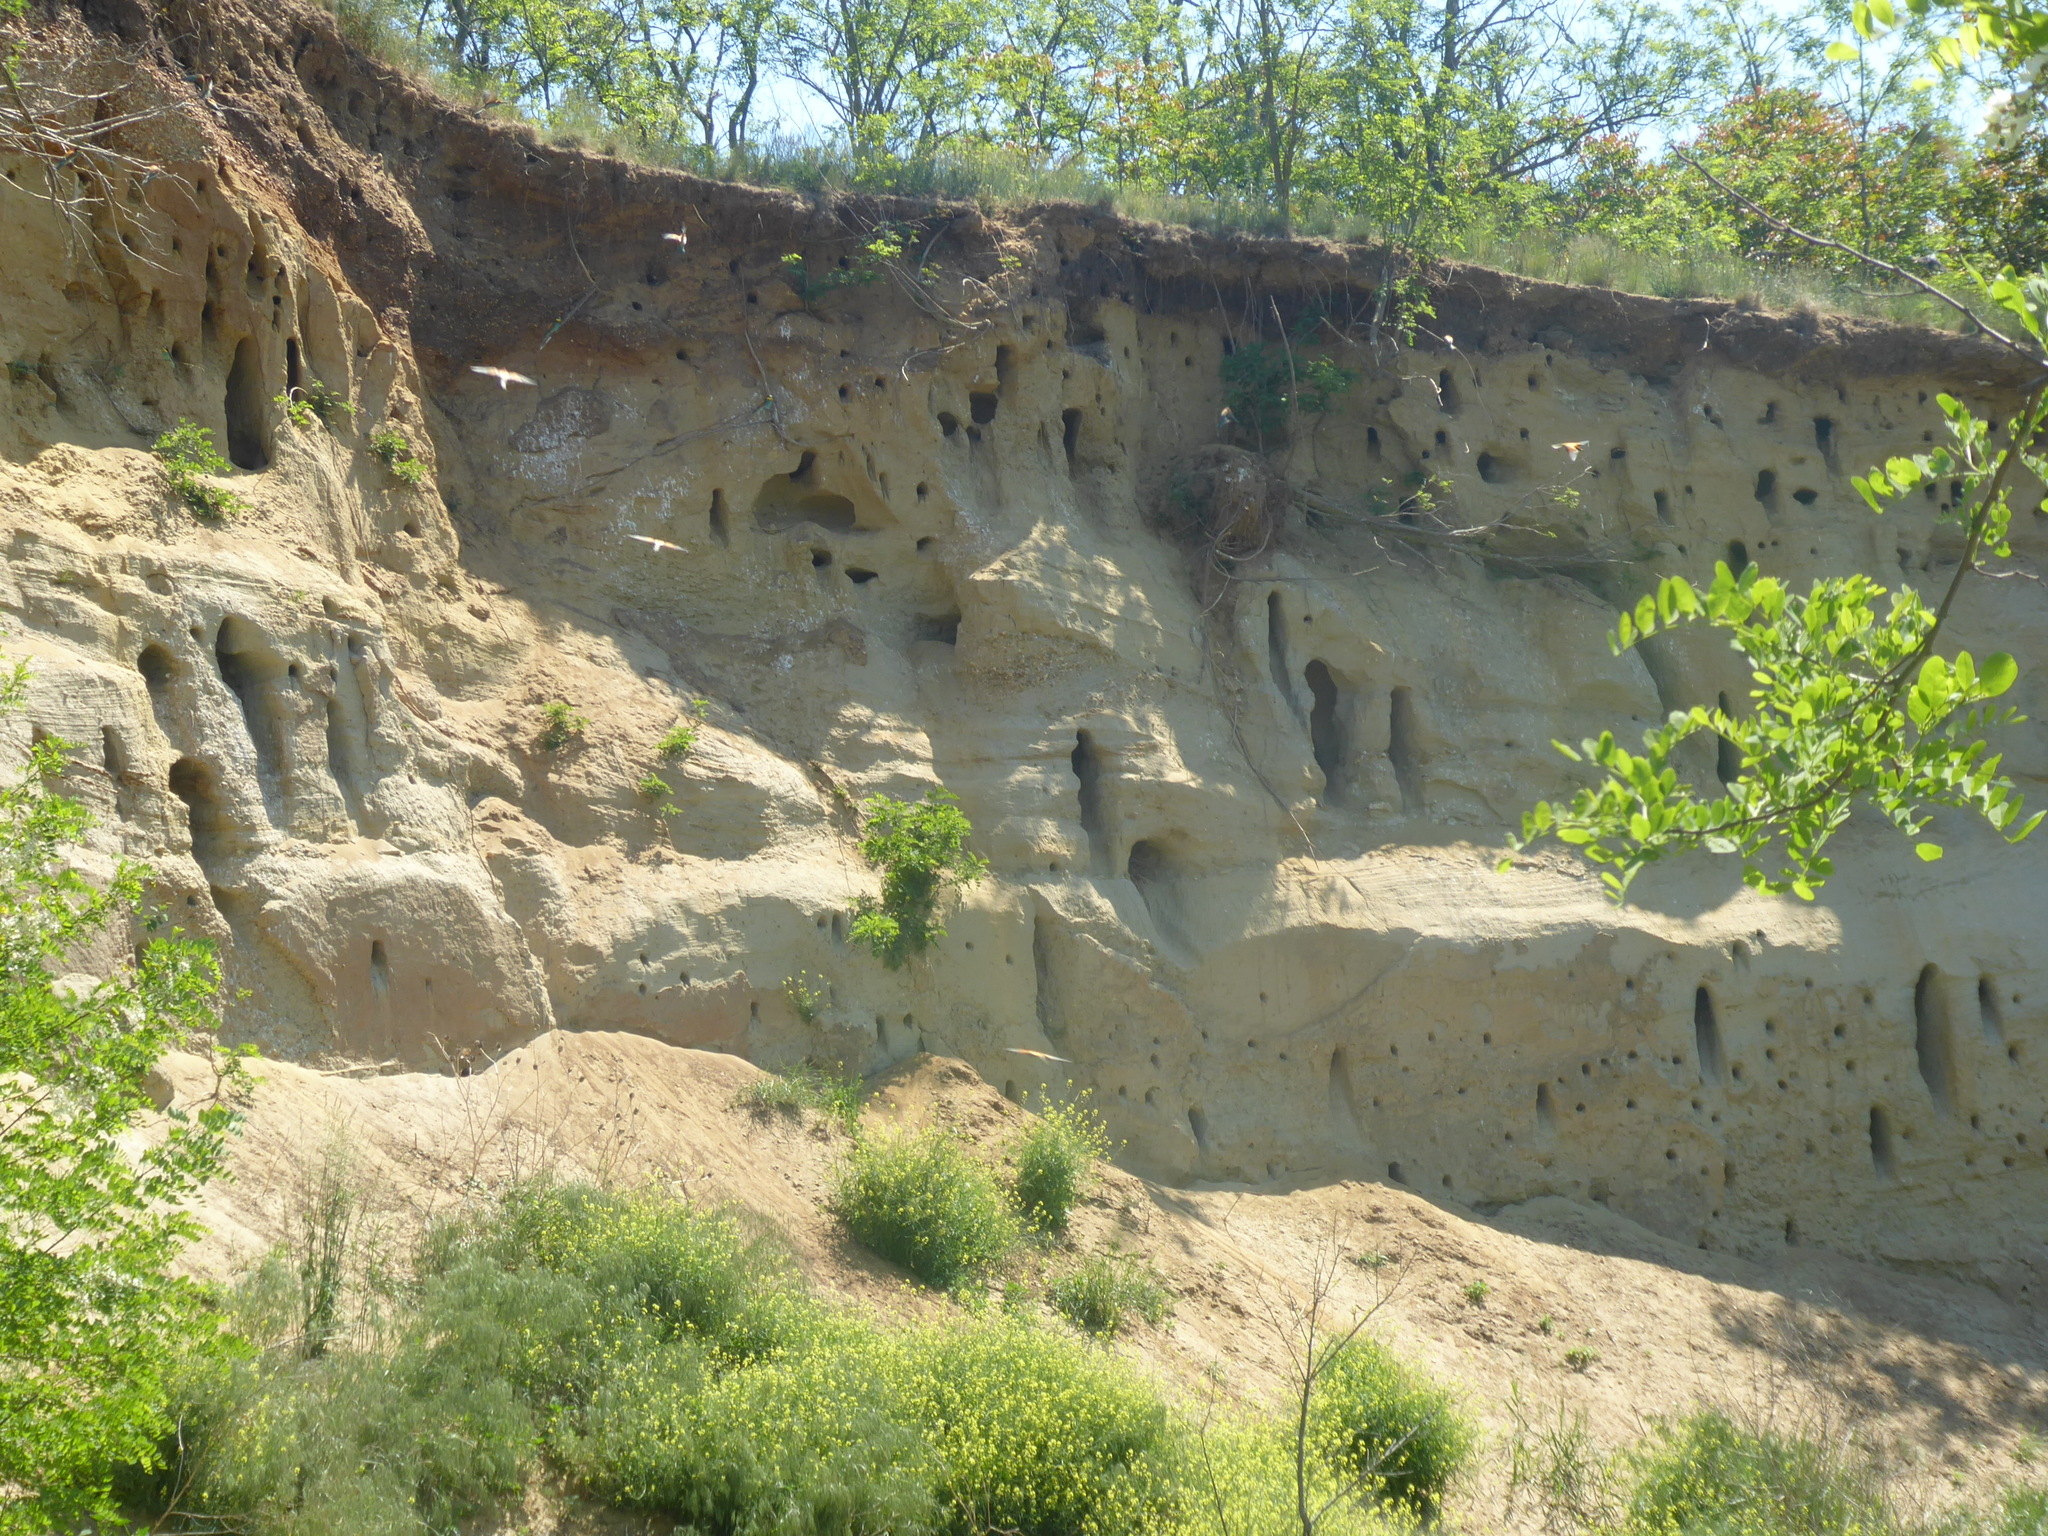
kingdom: Animalia
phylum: Chordata
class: Aves
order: Coraciiformes
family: Meropidae
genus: Merops
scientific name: Merops apiaster
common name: European bee-eater
